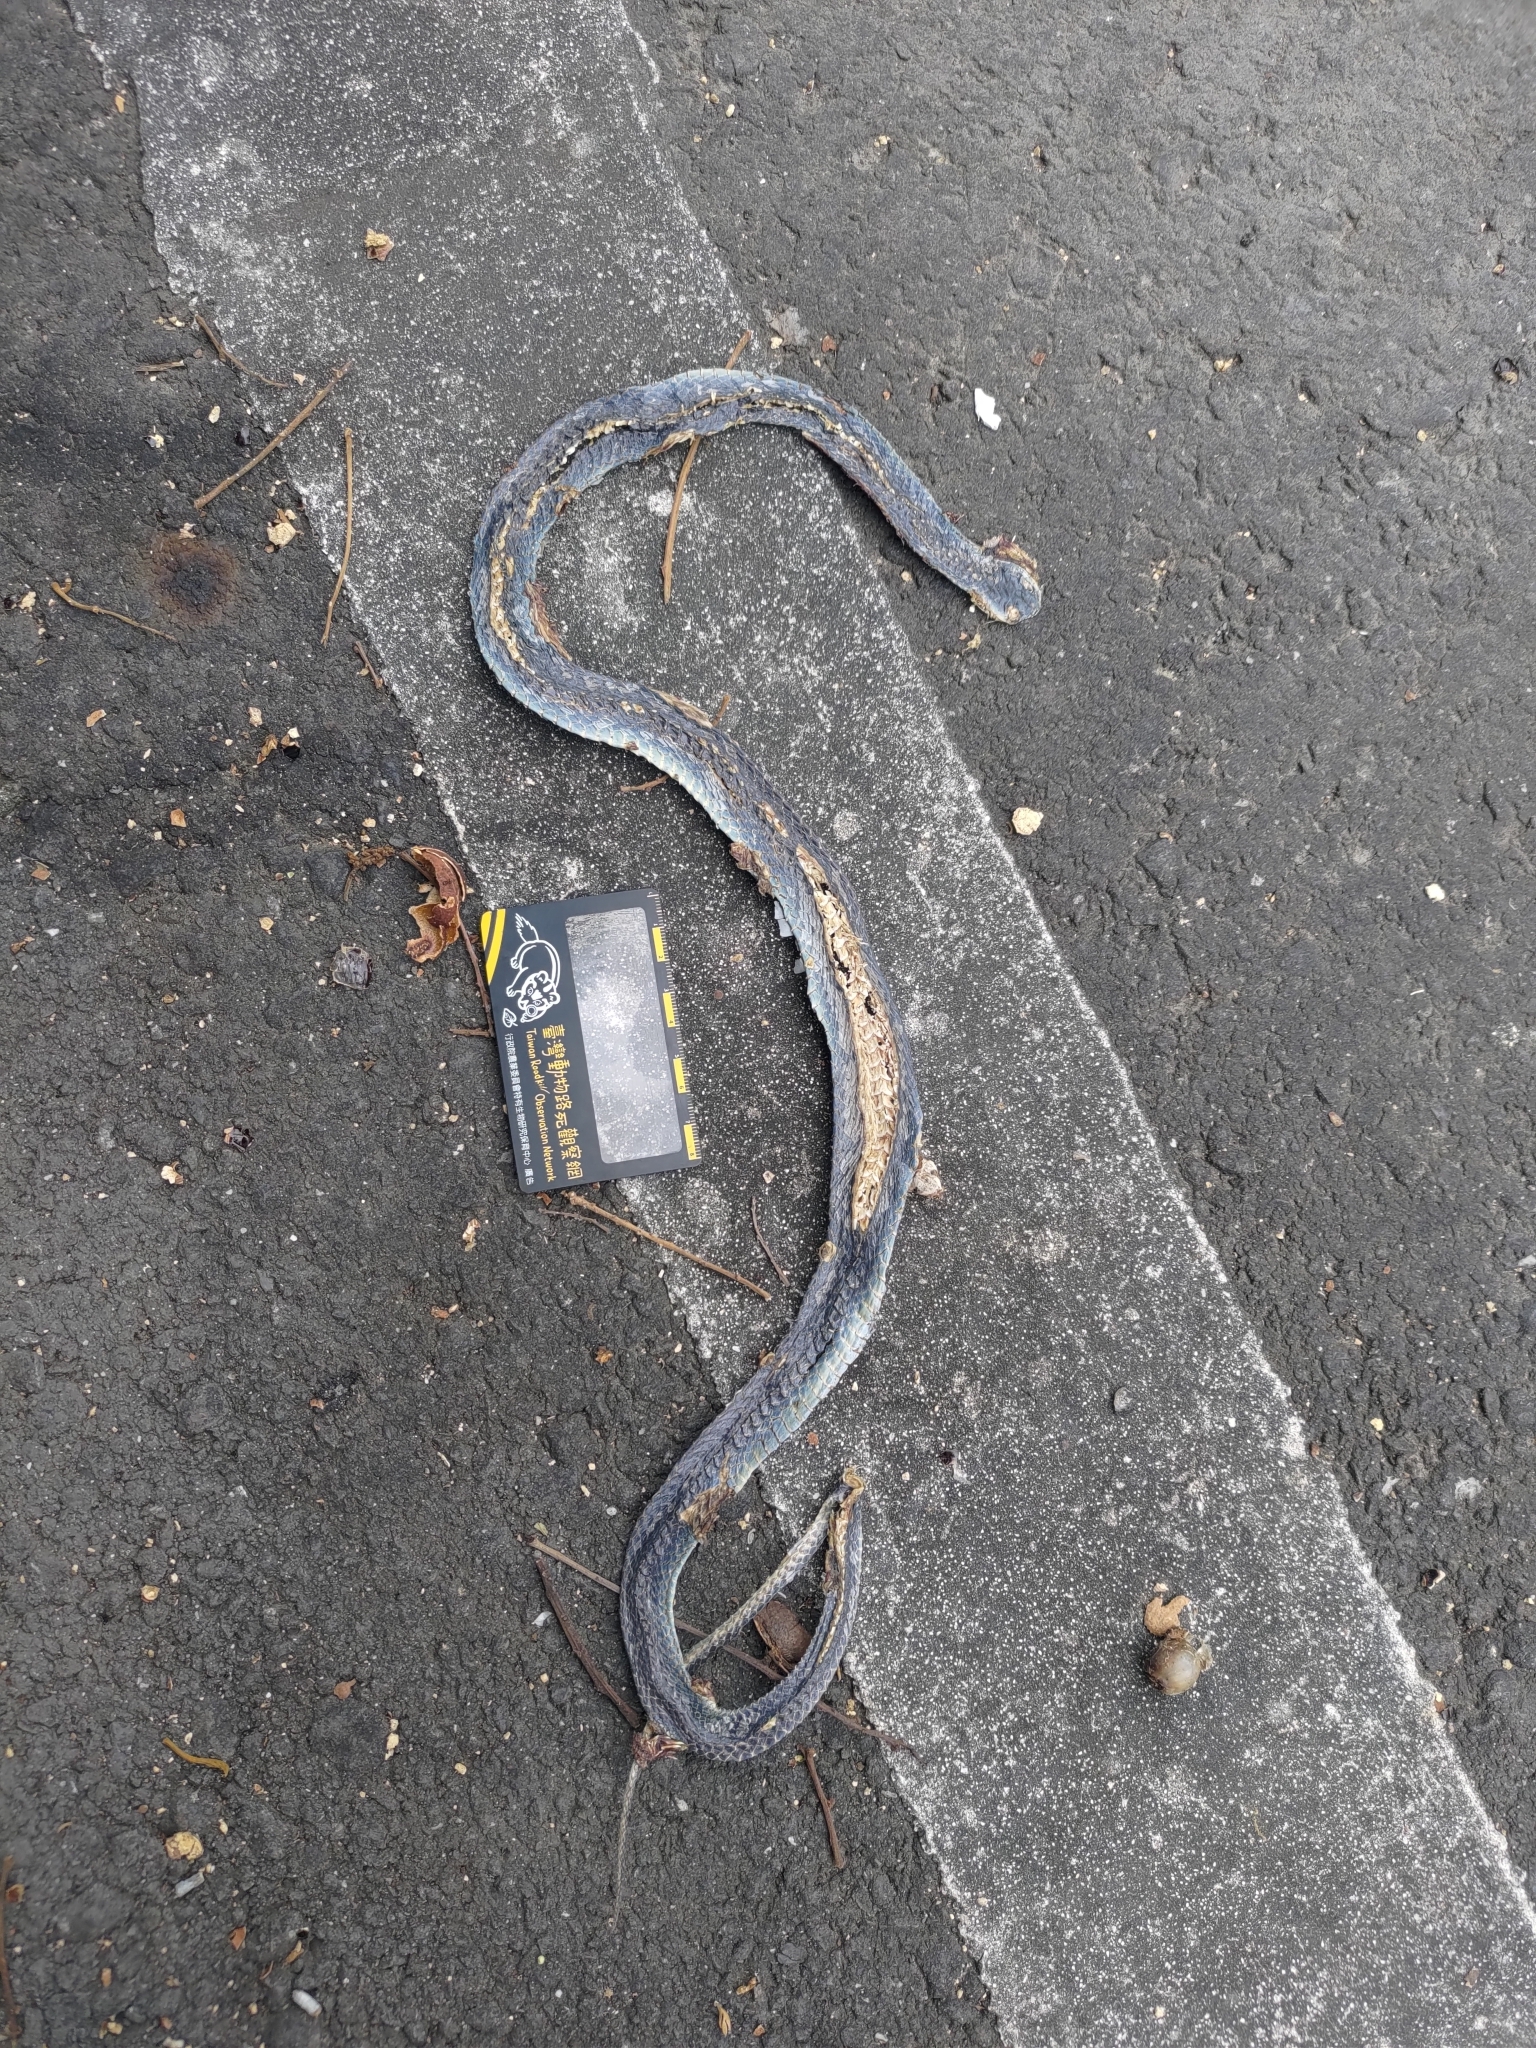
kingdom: Animalia
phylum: Chordata
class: Squamata
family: Colubridae
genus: Ptyas
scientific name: Ptyas major
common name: Chinese green snake
